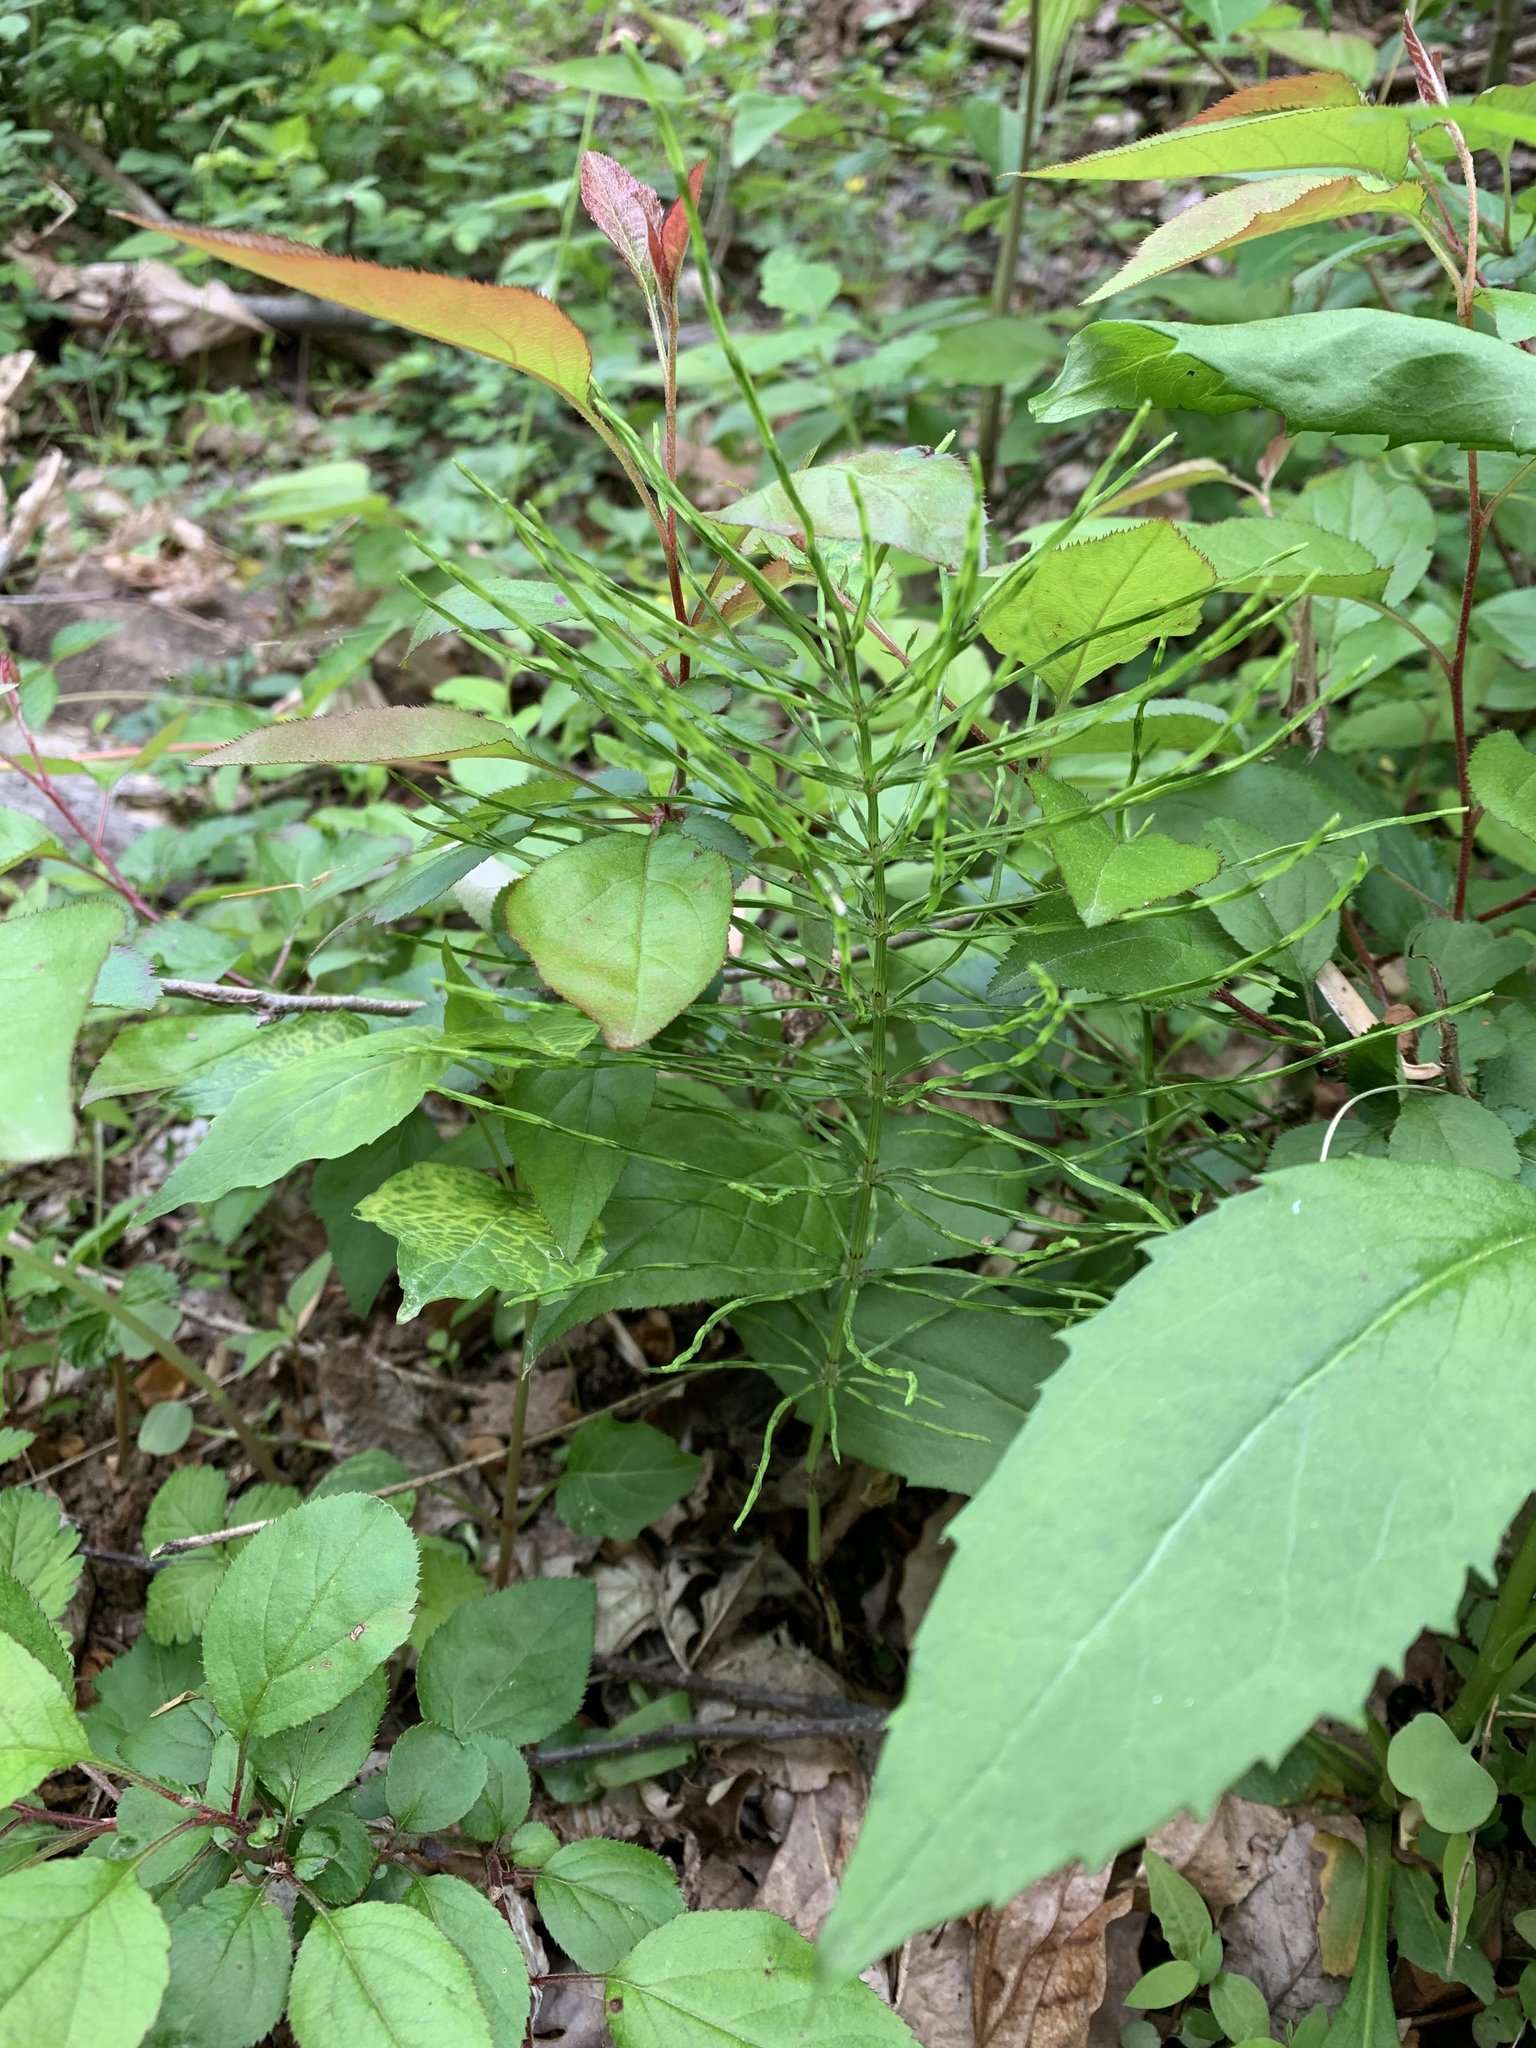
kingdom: Plantae
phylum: Tracheophyta
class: Polypodiopsida
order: Equisetales
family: Equisetaceae
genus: Equisetum
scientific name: Equisetum arvense
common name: Field horsetail
